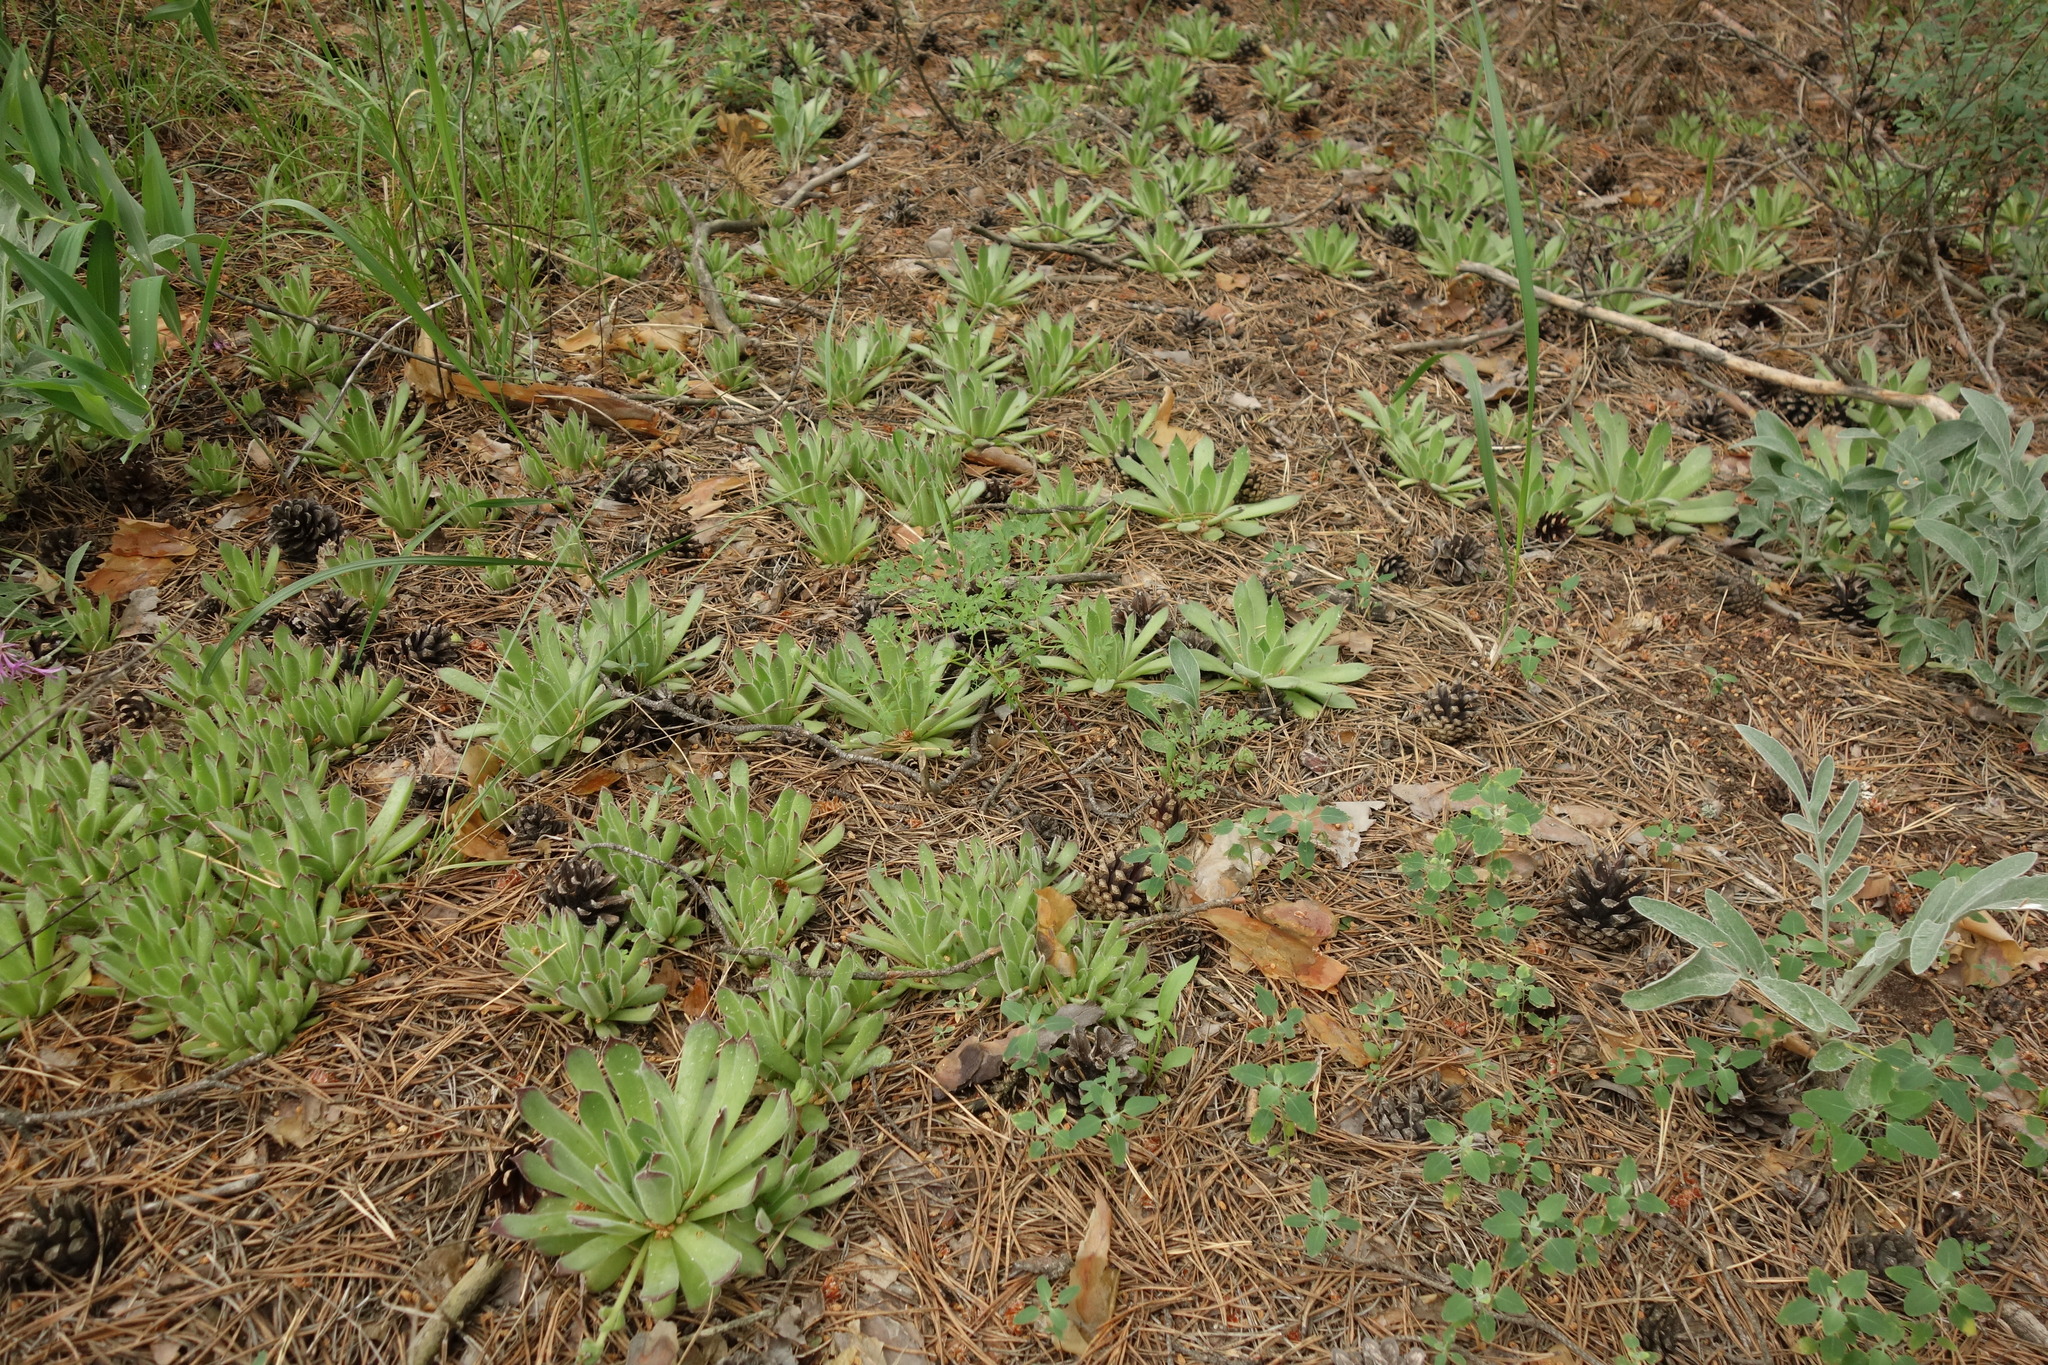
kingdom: Plantae
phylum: Tracheophyta
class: Magnoliopsida
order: Saxifragales
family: Crassulaceae
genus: Sempervivum
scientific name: Sempervivum ruthenicum
